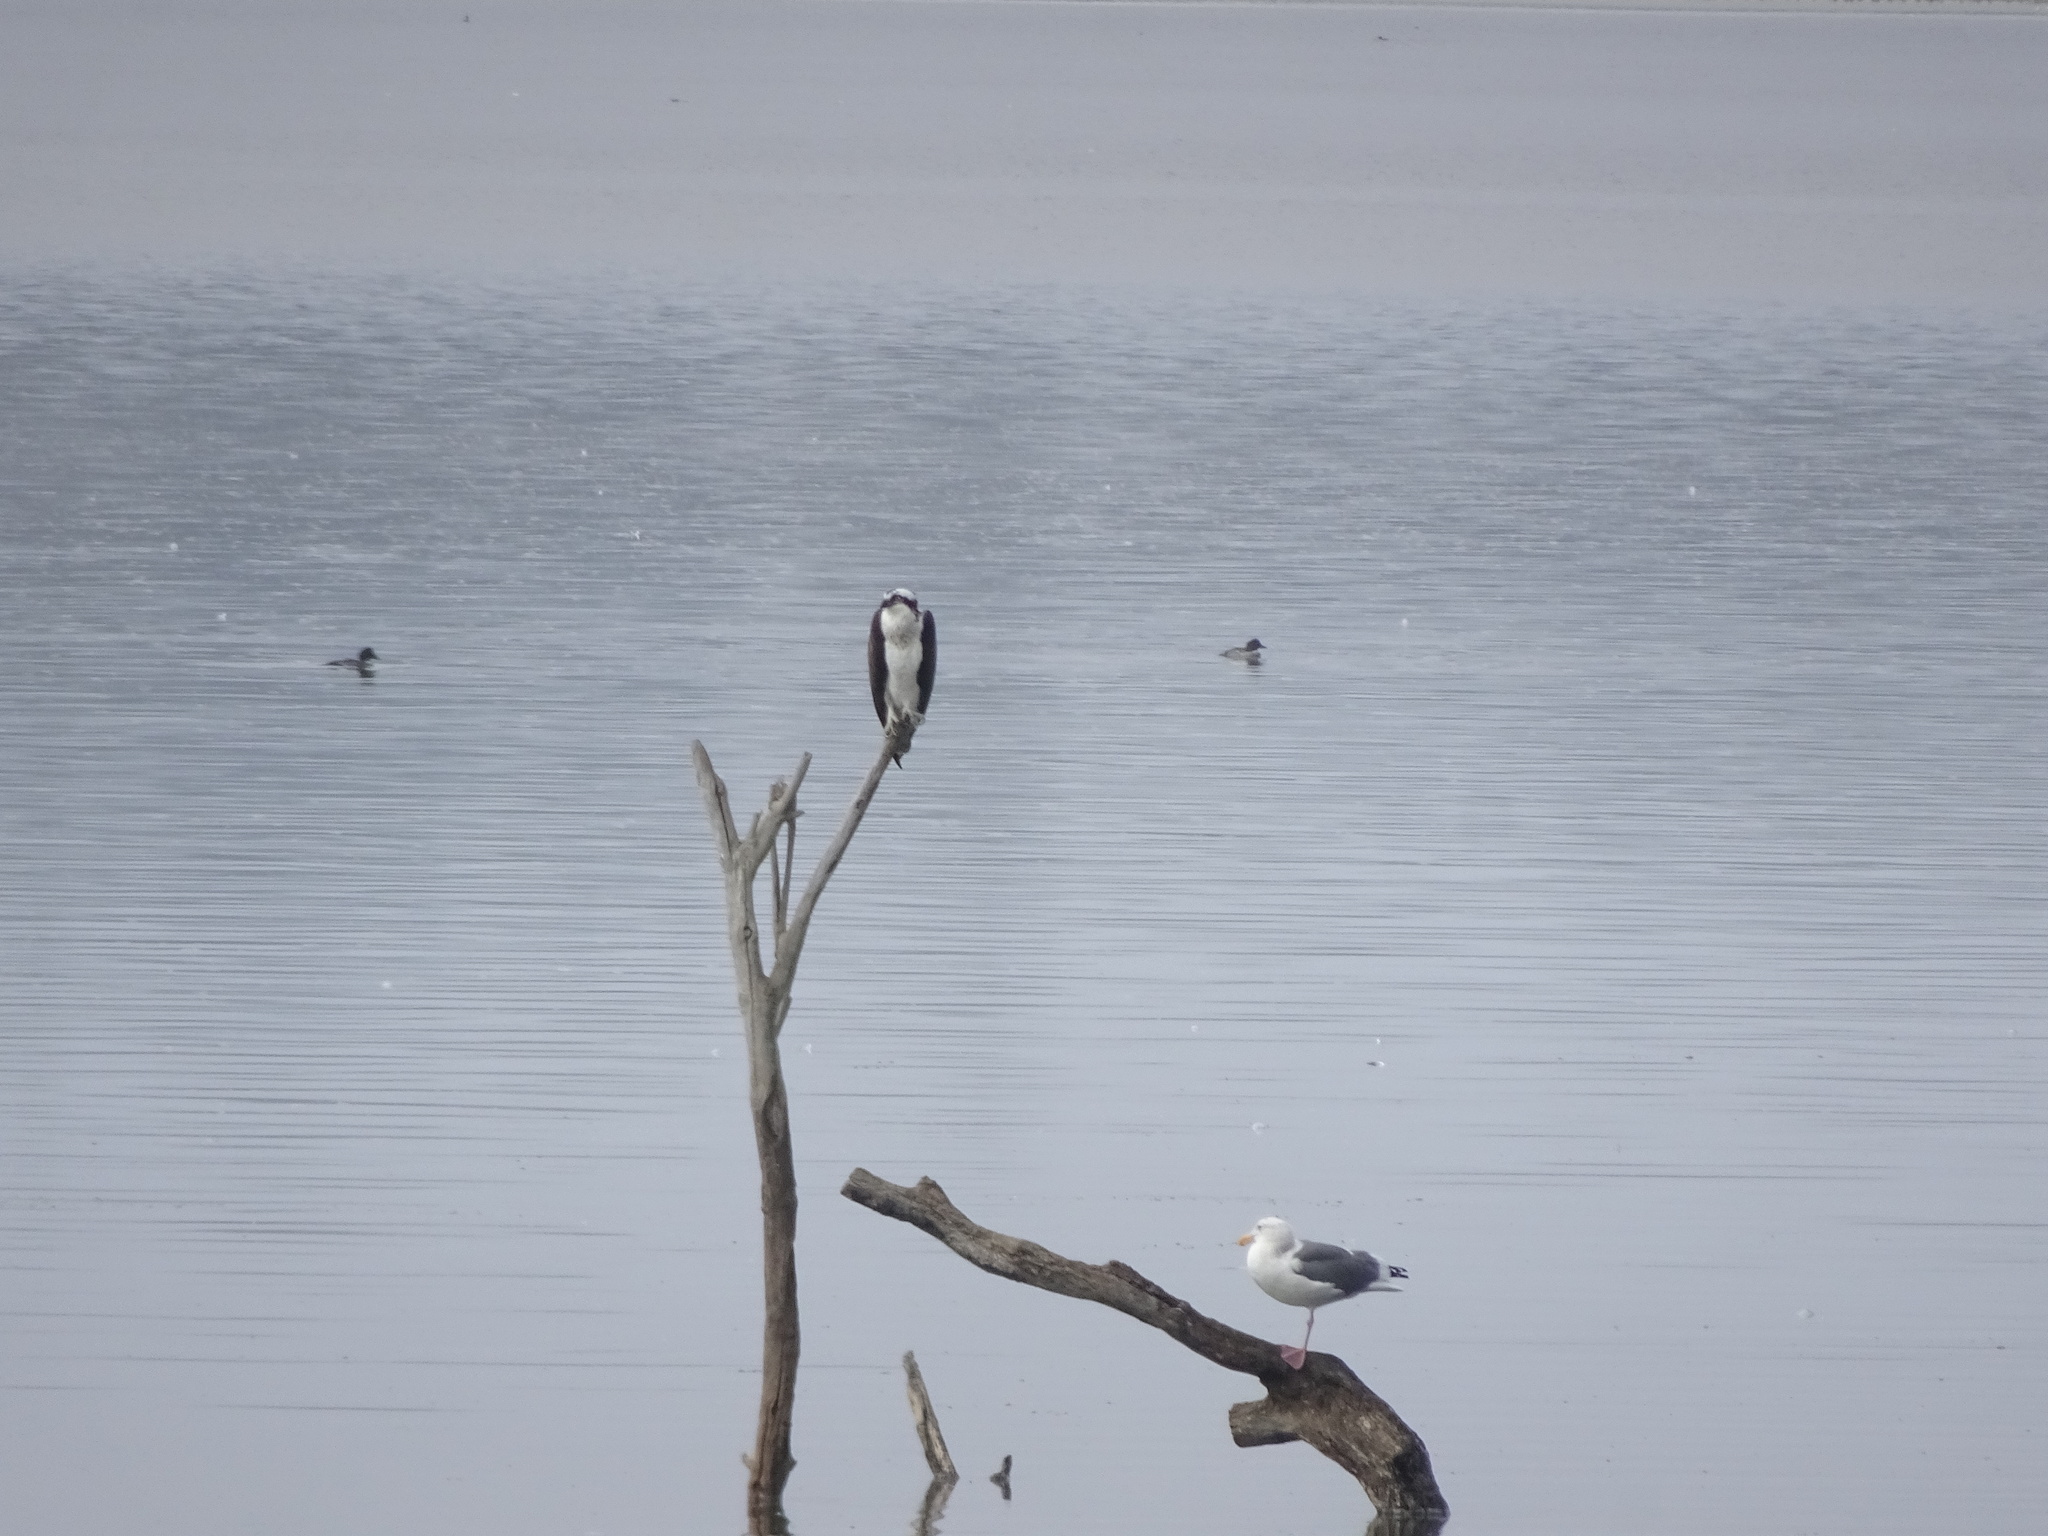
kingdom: Animalia
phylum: Chordata
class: Aves
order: Accipitriformes
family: Pandionidae
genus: Pandion
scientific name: Pandion haliaetus
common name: Osprey
